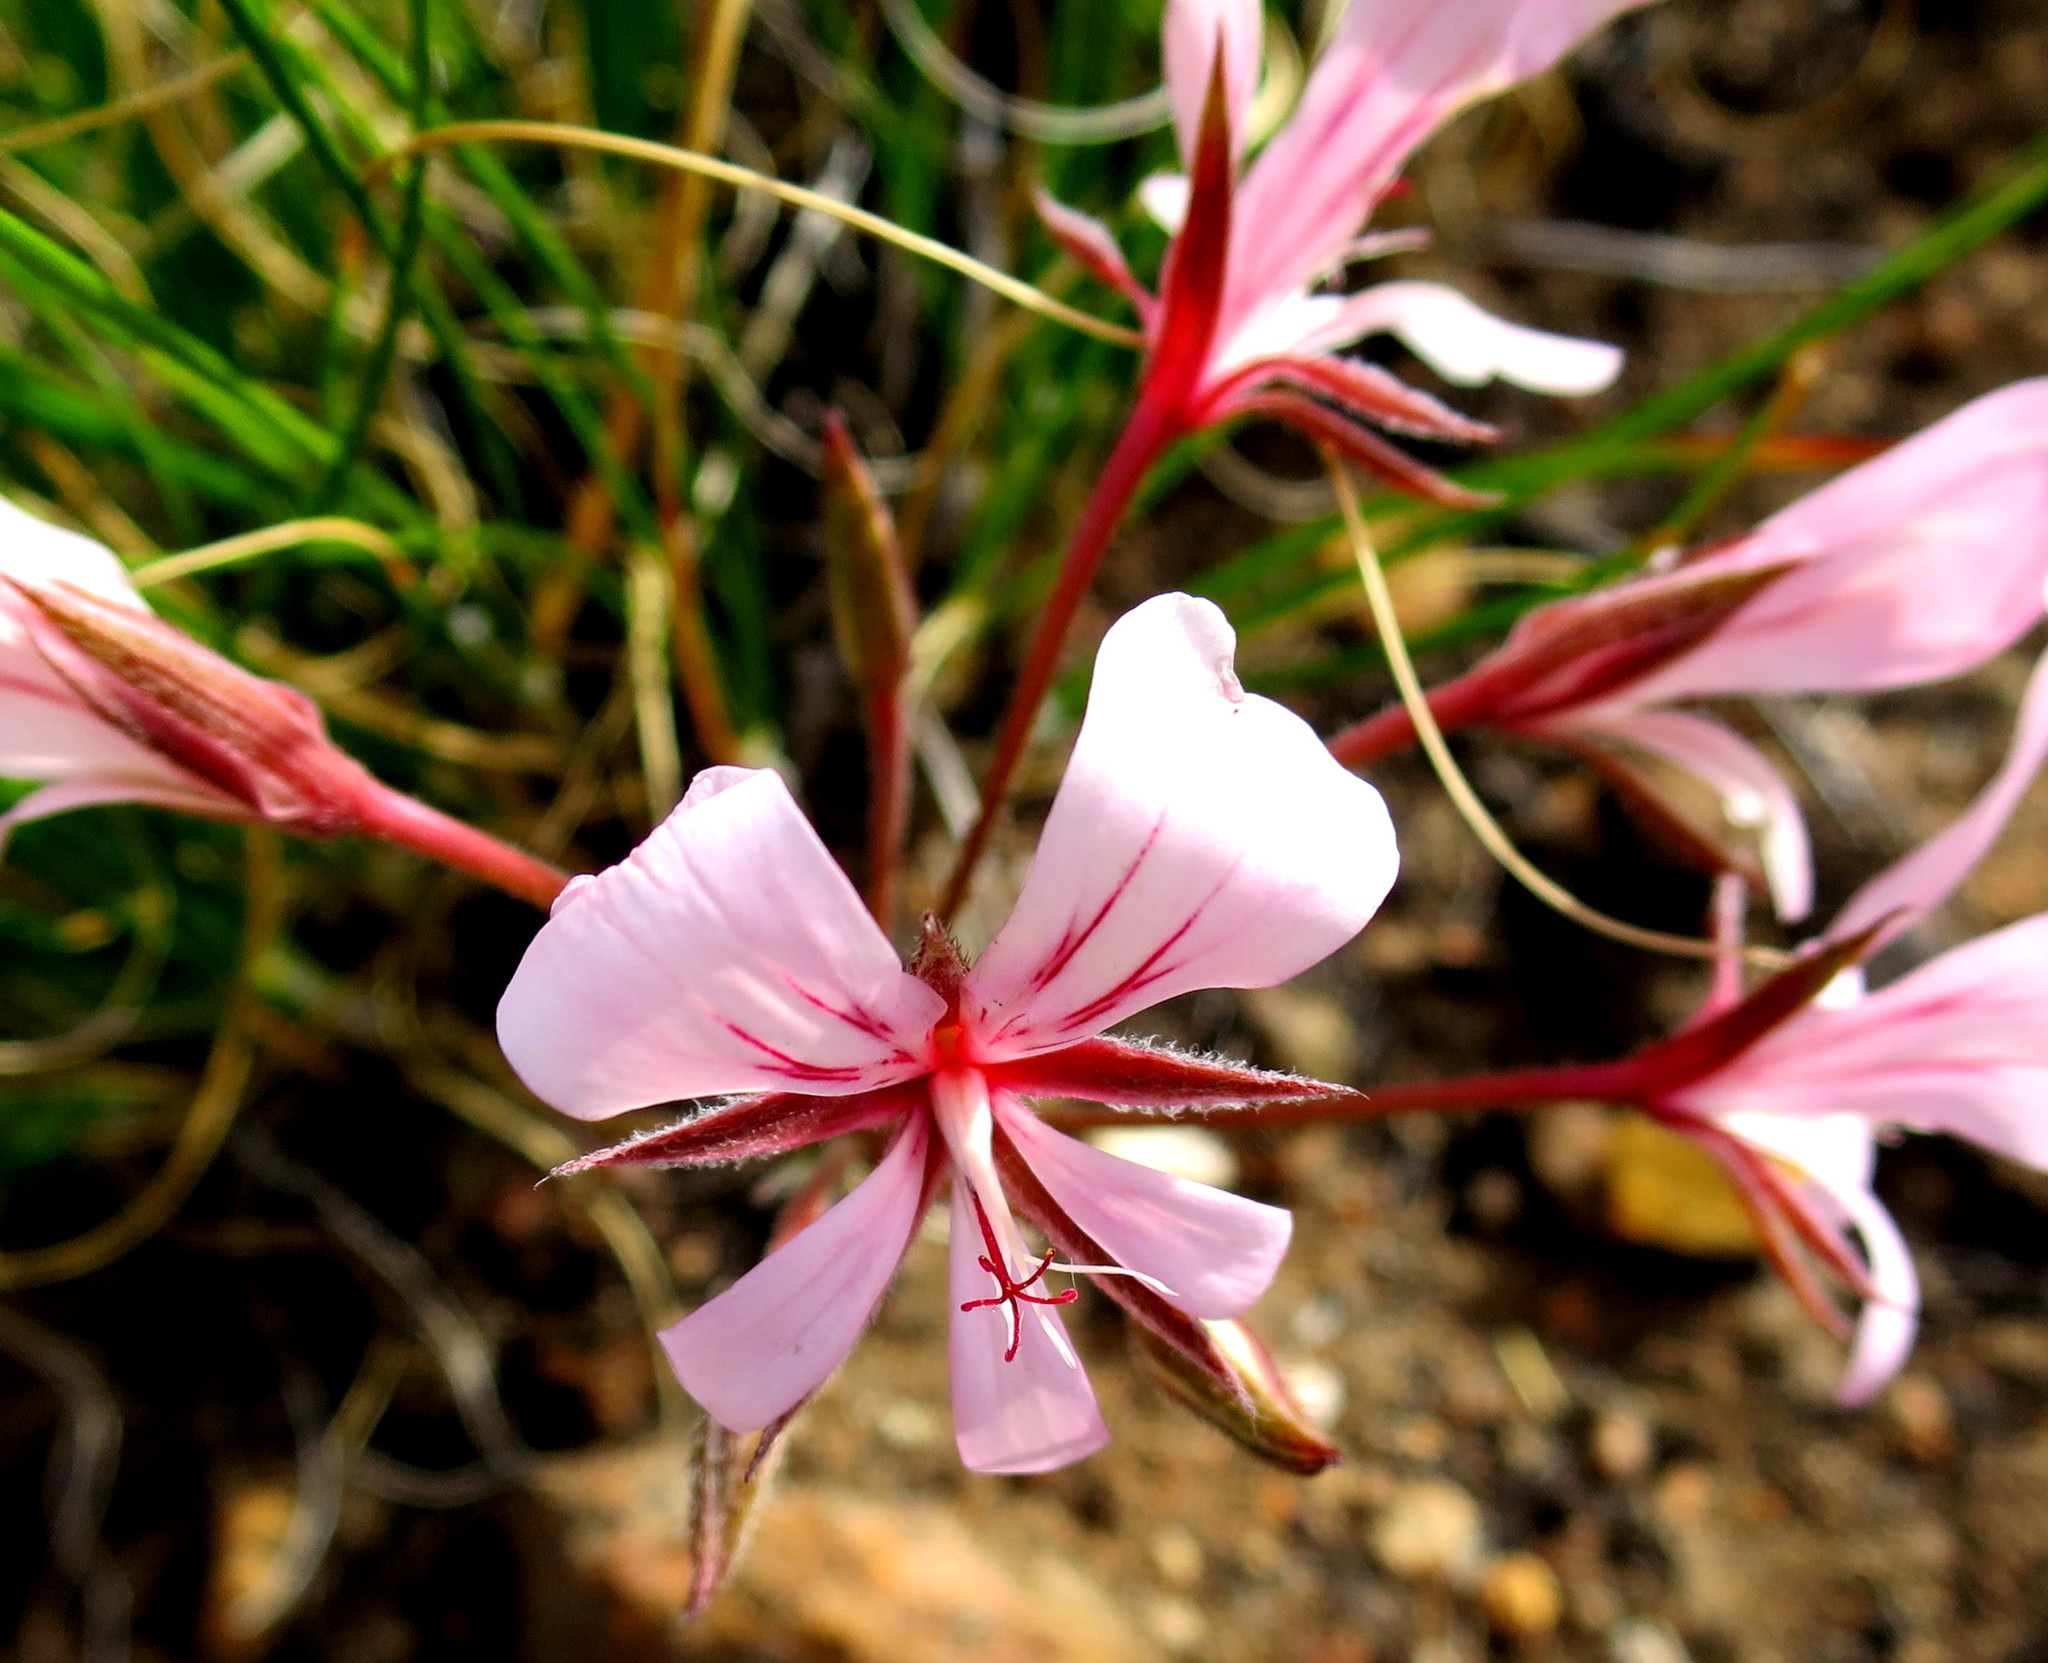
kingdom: Plantae
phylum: Tracheophyta
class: Magnoliopsida
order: Geraniales
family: Geraniaceae
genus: Pelargonium
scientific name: Pelargonium carneum
